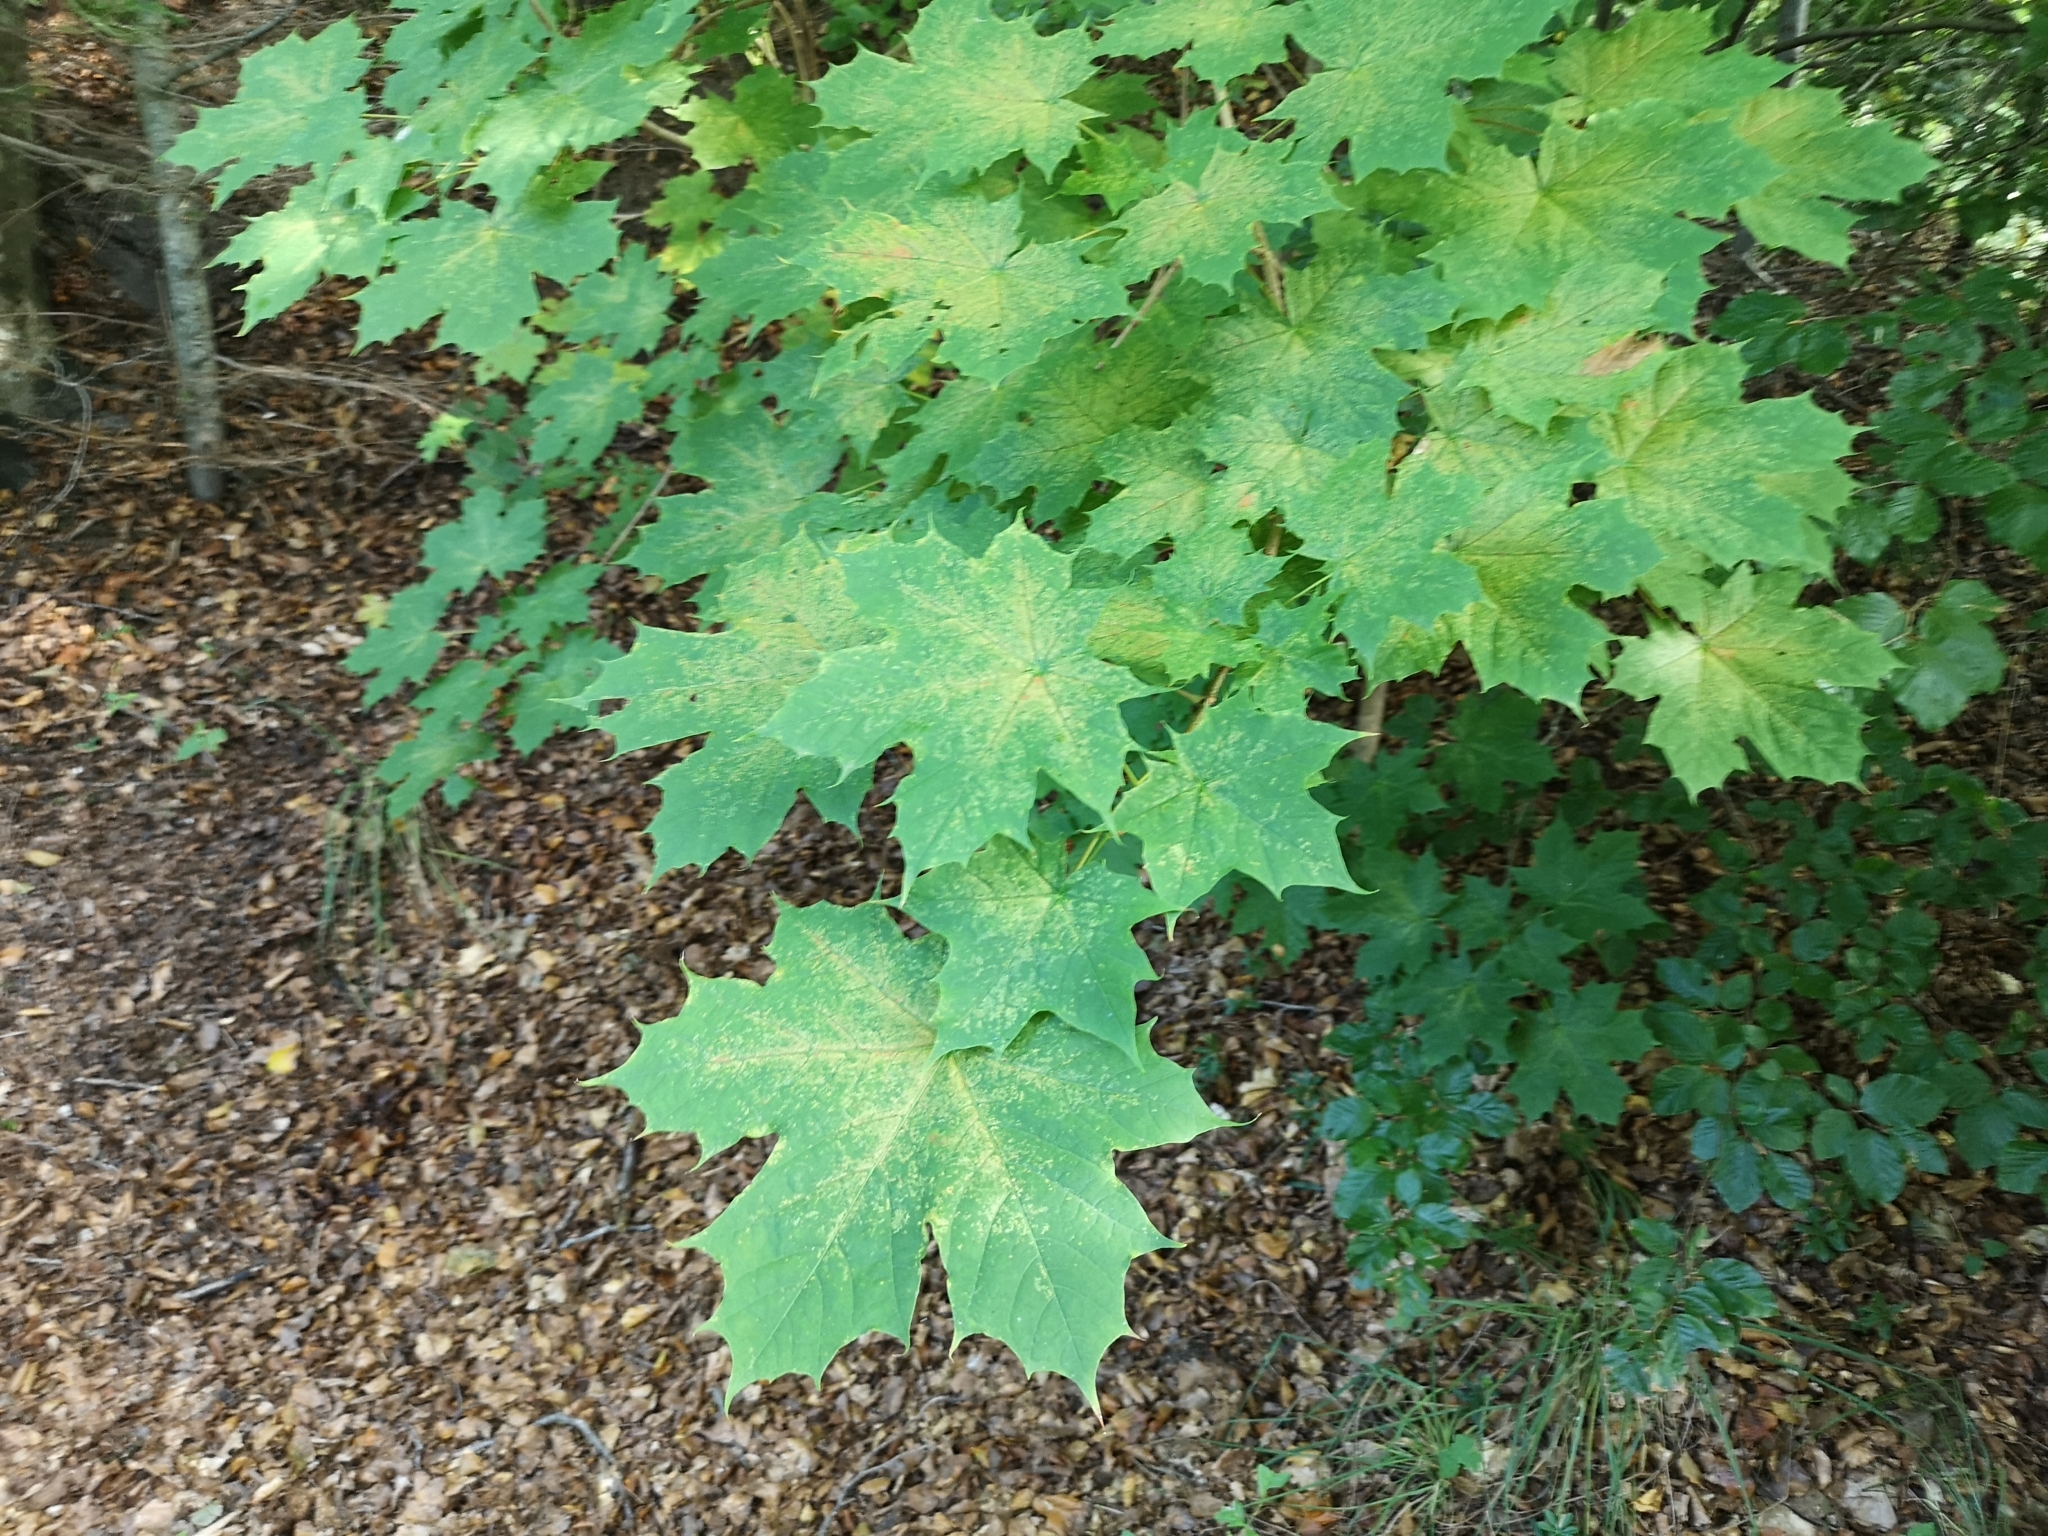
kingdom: Plantae
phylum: Tracheophyta
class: Magnoliopsida
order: Sapindales
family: Sapindaceae
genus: Acer
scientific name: Acer platanoides
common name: Norway maple
